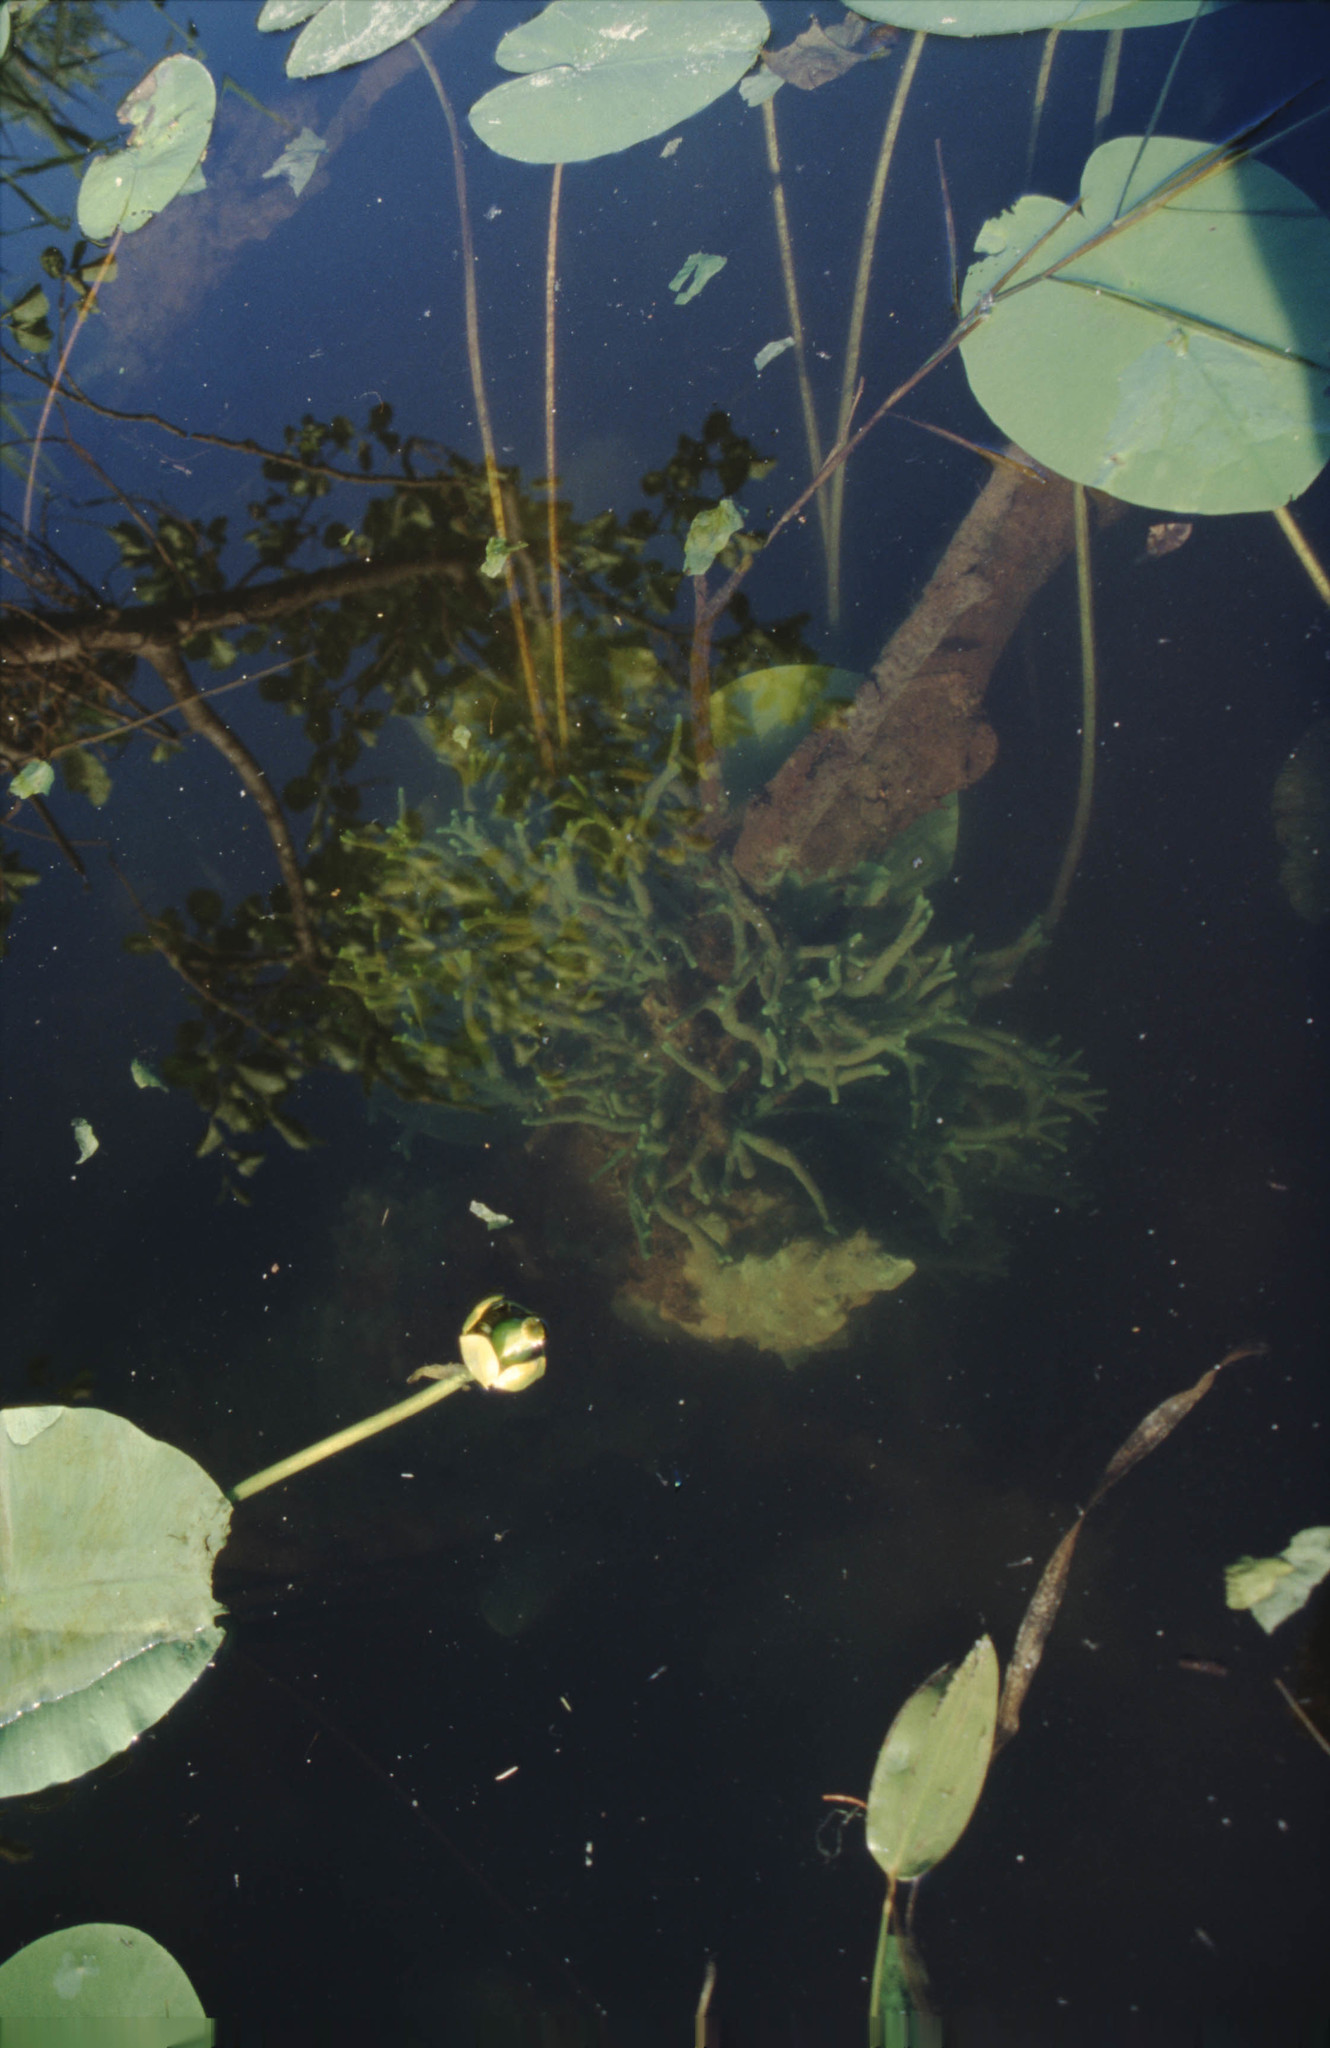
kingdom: Plantae
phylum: Tracheophyta
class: Magnoliopsida
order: Nymphaeales
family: Nymphaeaceae
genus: Nuphar
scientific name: Nuphar lutea
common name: Yellow water-lily
